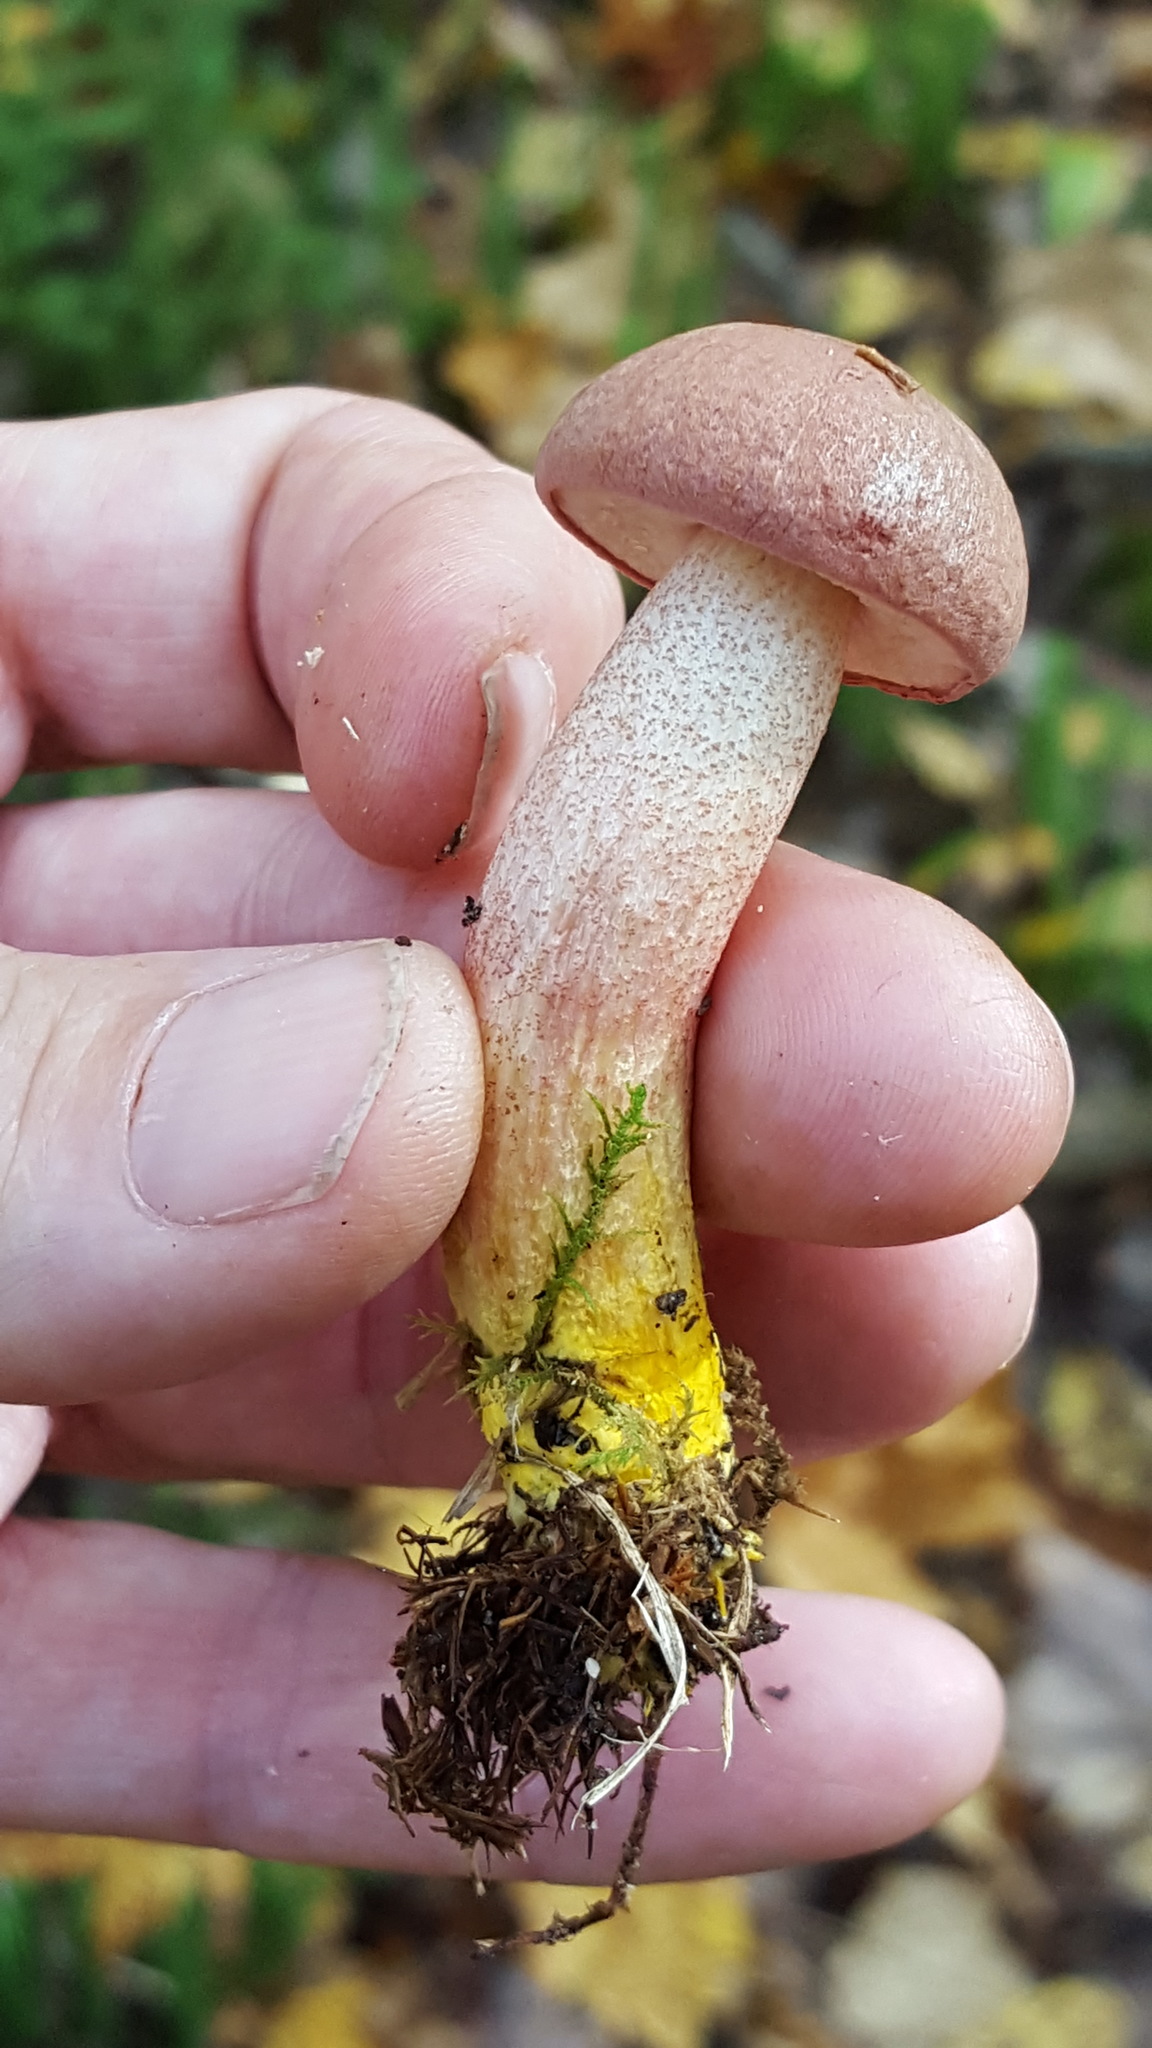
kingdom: Fungi
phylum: Basidiomycota
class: Agaricomycetes
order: Boletales
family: Boletaceae
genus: Harrya
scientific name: Harrya chromipes
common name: Chrome-footed bolete
